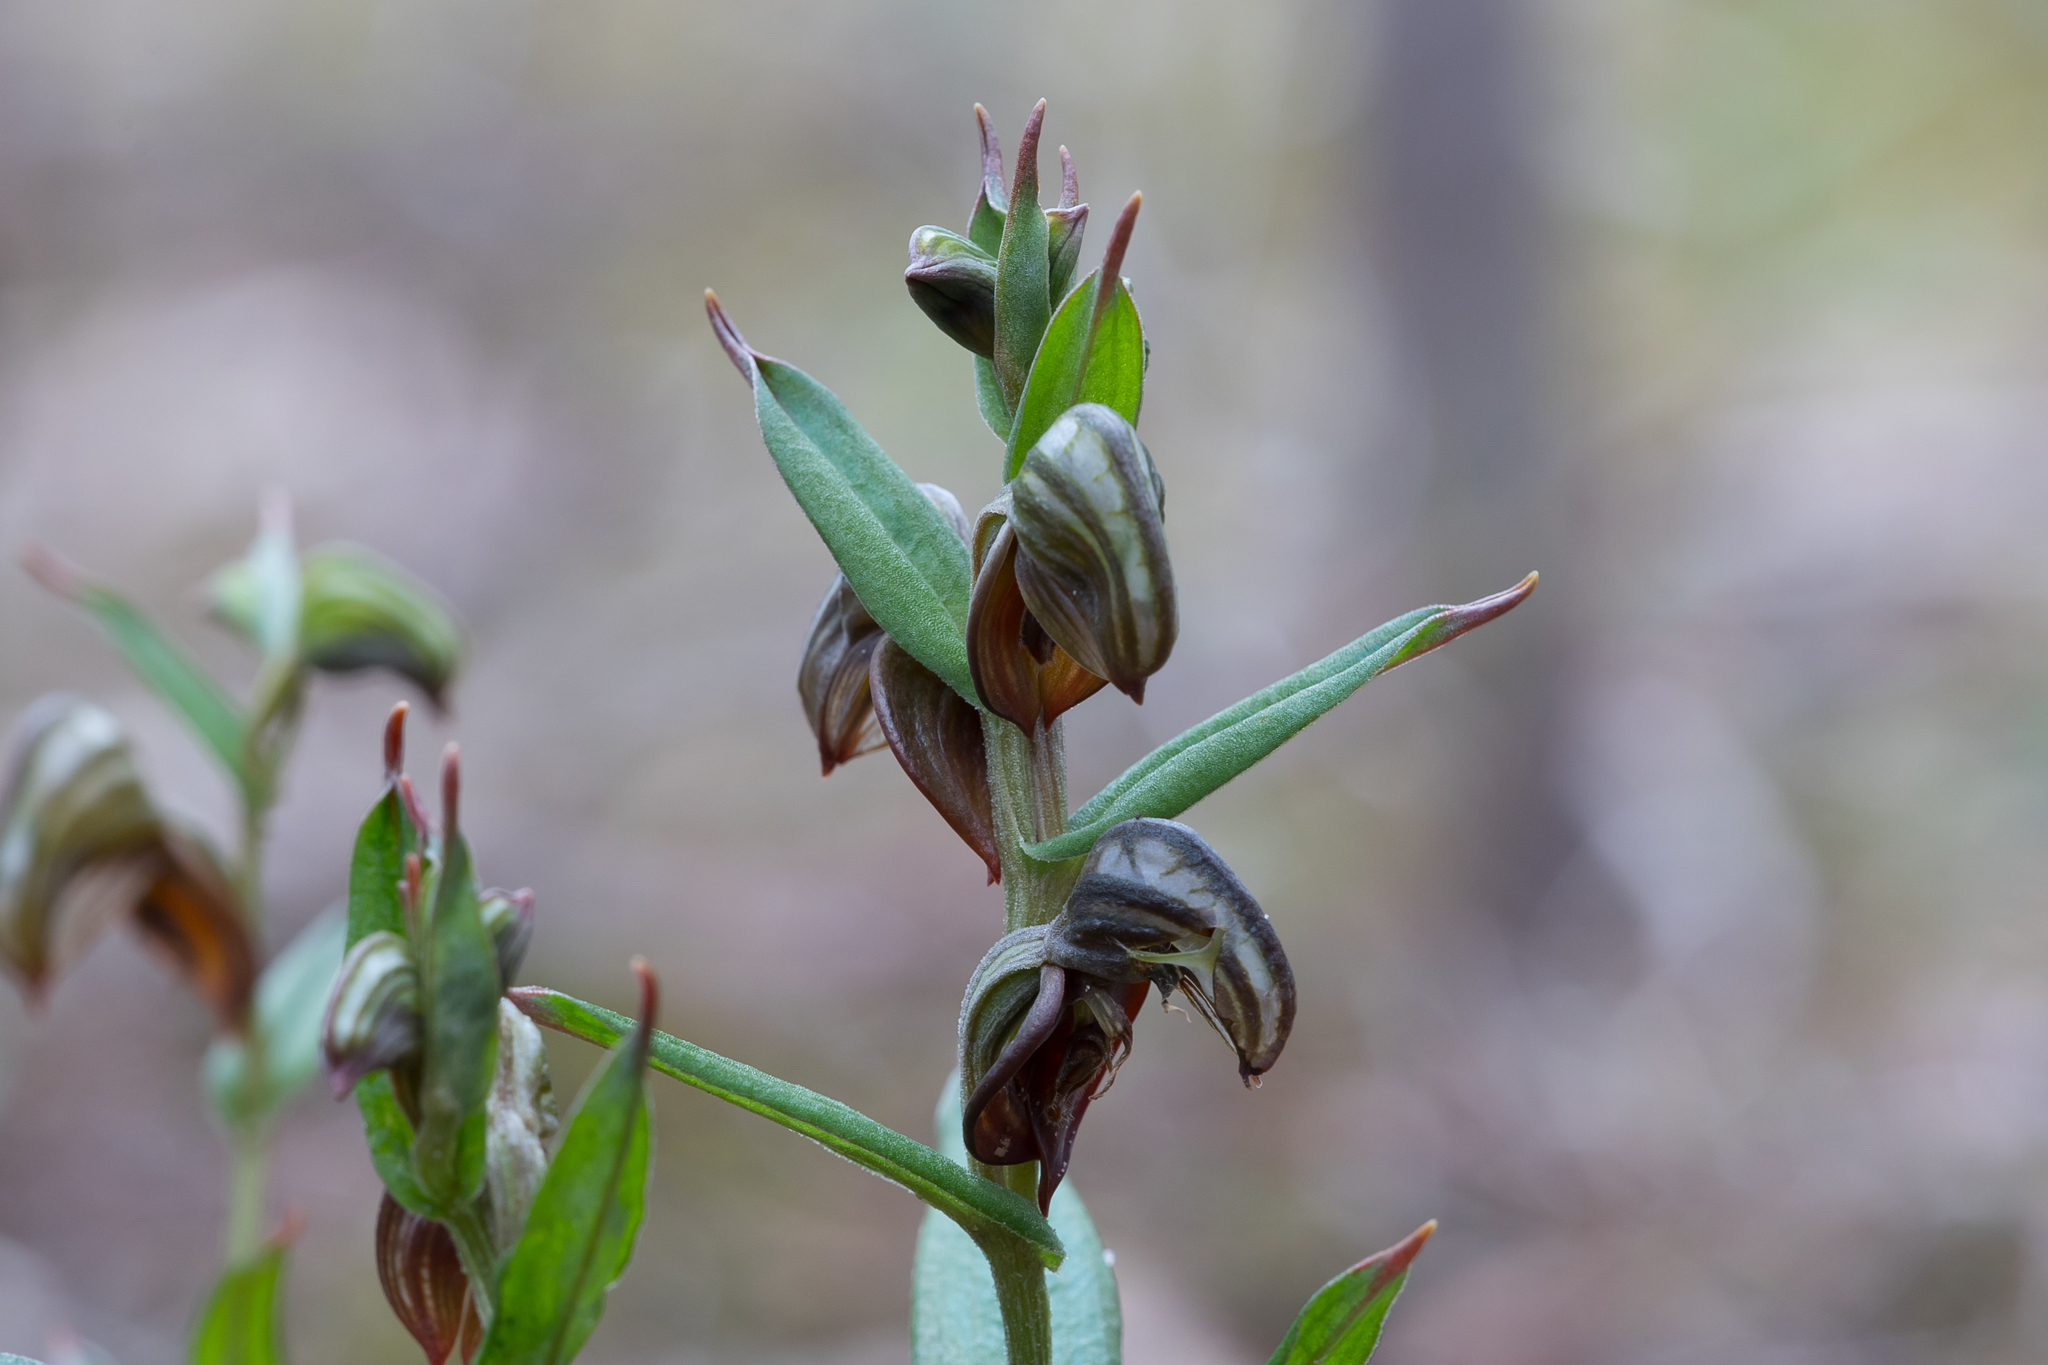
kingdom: Plantae
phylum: Tracheophyta
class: Liliopsida
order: Asparagales
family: Orchidaceae
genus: Pterostylis
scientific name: Pterostylis sanguinea
